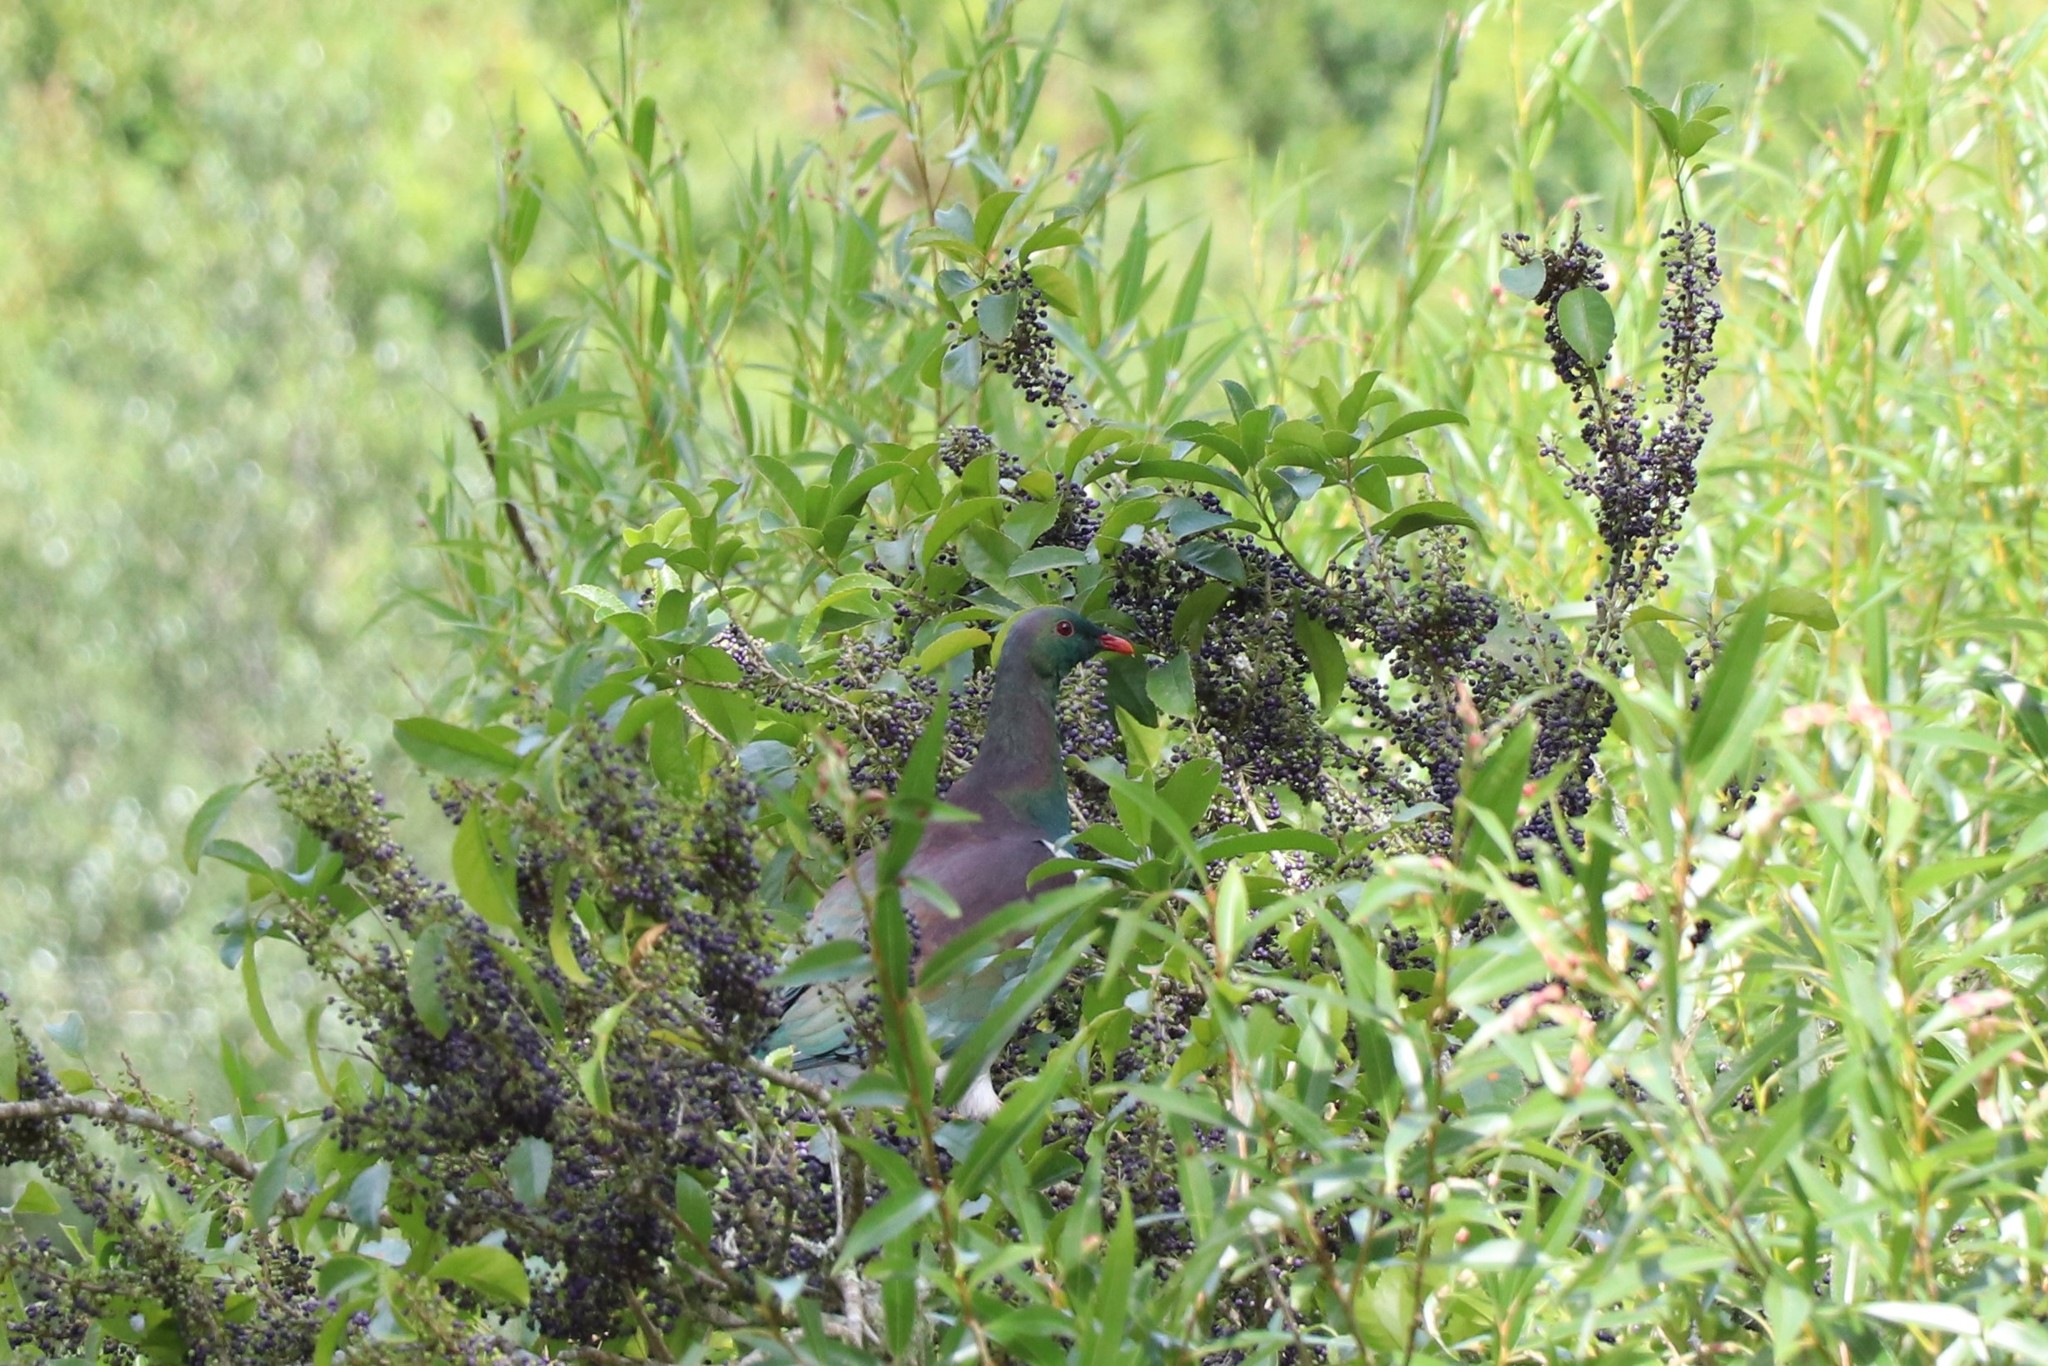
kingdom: Animalia
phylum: Chordata
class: Aves
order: Columbiformes
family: Columbidae
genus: Hemiphaga
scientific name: Hemiphaga novaeseelandiae
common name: New zealand pigeon
